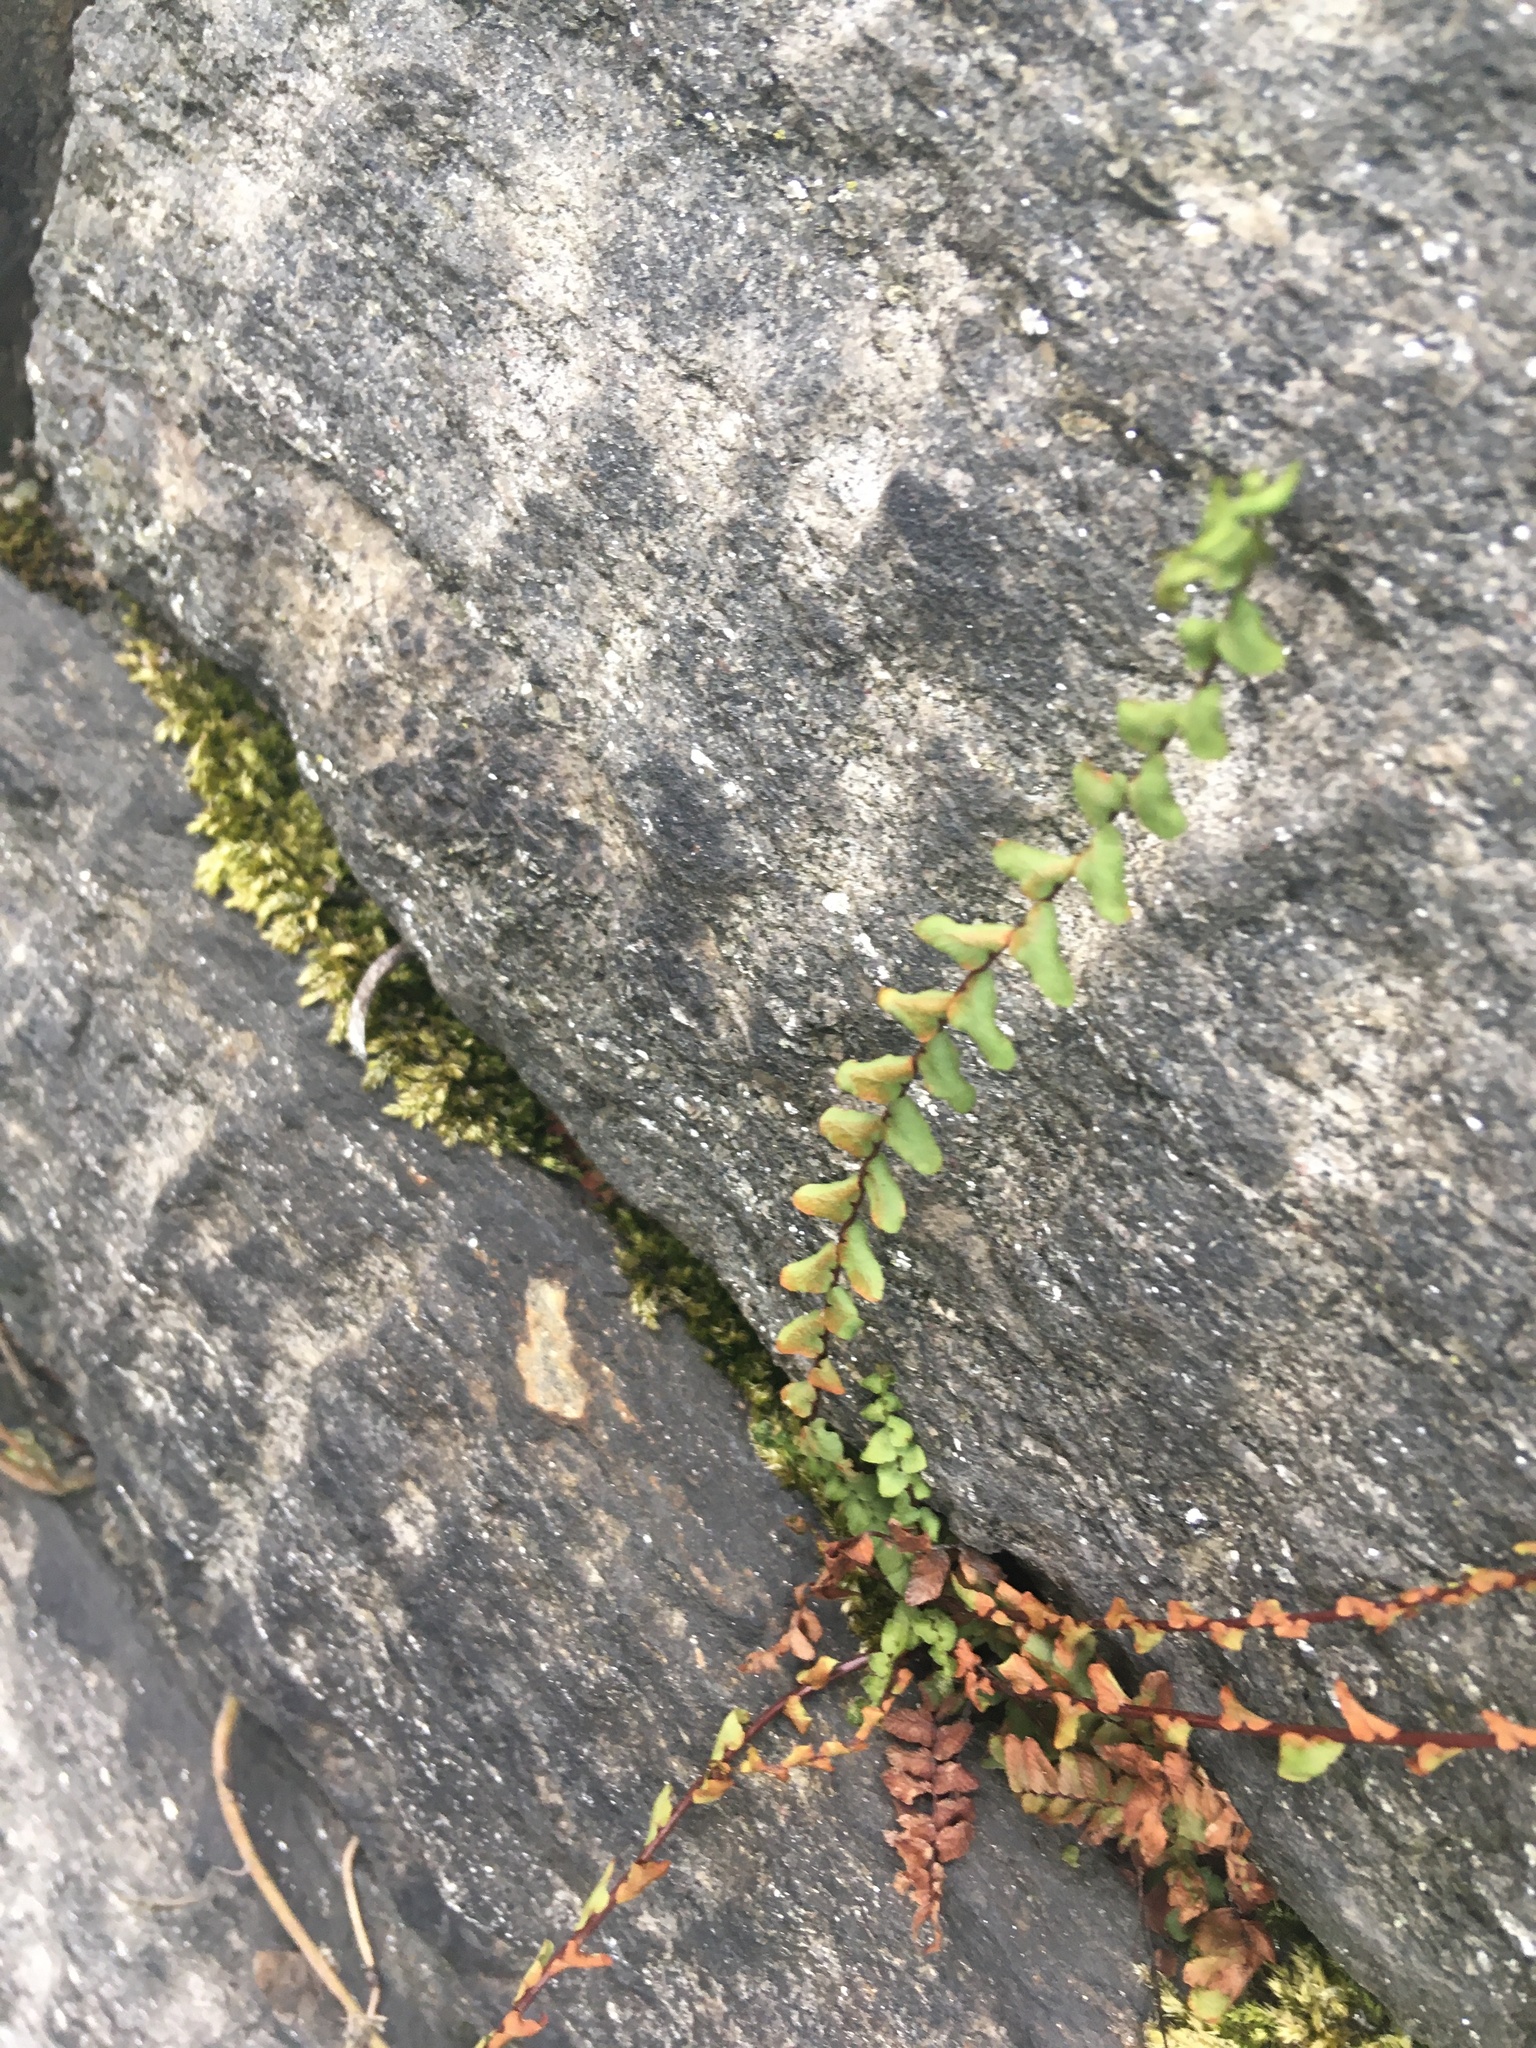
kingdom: Plantae
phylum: Tracheophyta
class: Polypodiopsida
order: Polypodiales
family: Aspleniaceae
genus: Asplenium
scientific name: Asplenium platyneuron
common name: Ebony spleenwort
